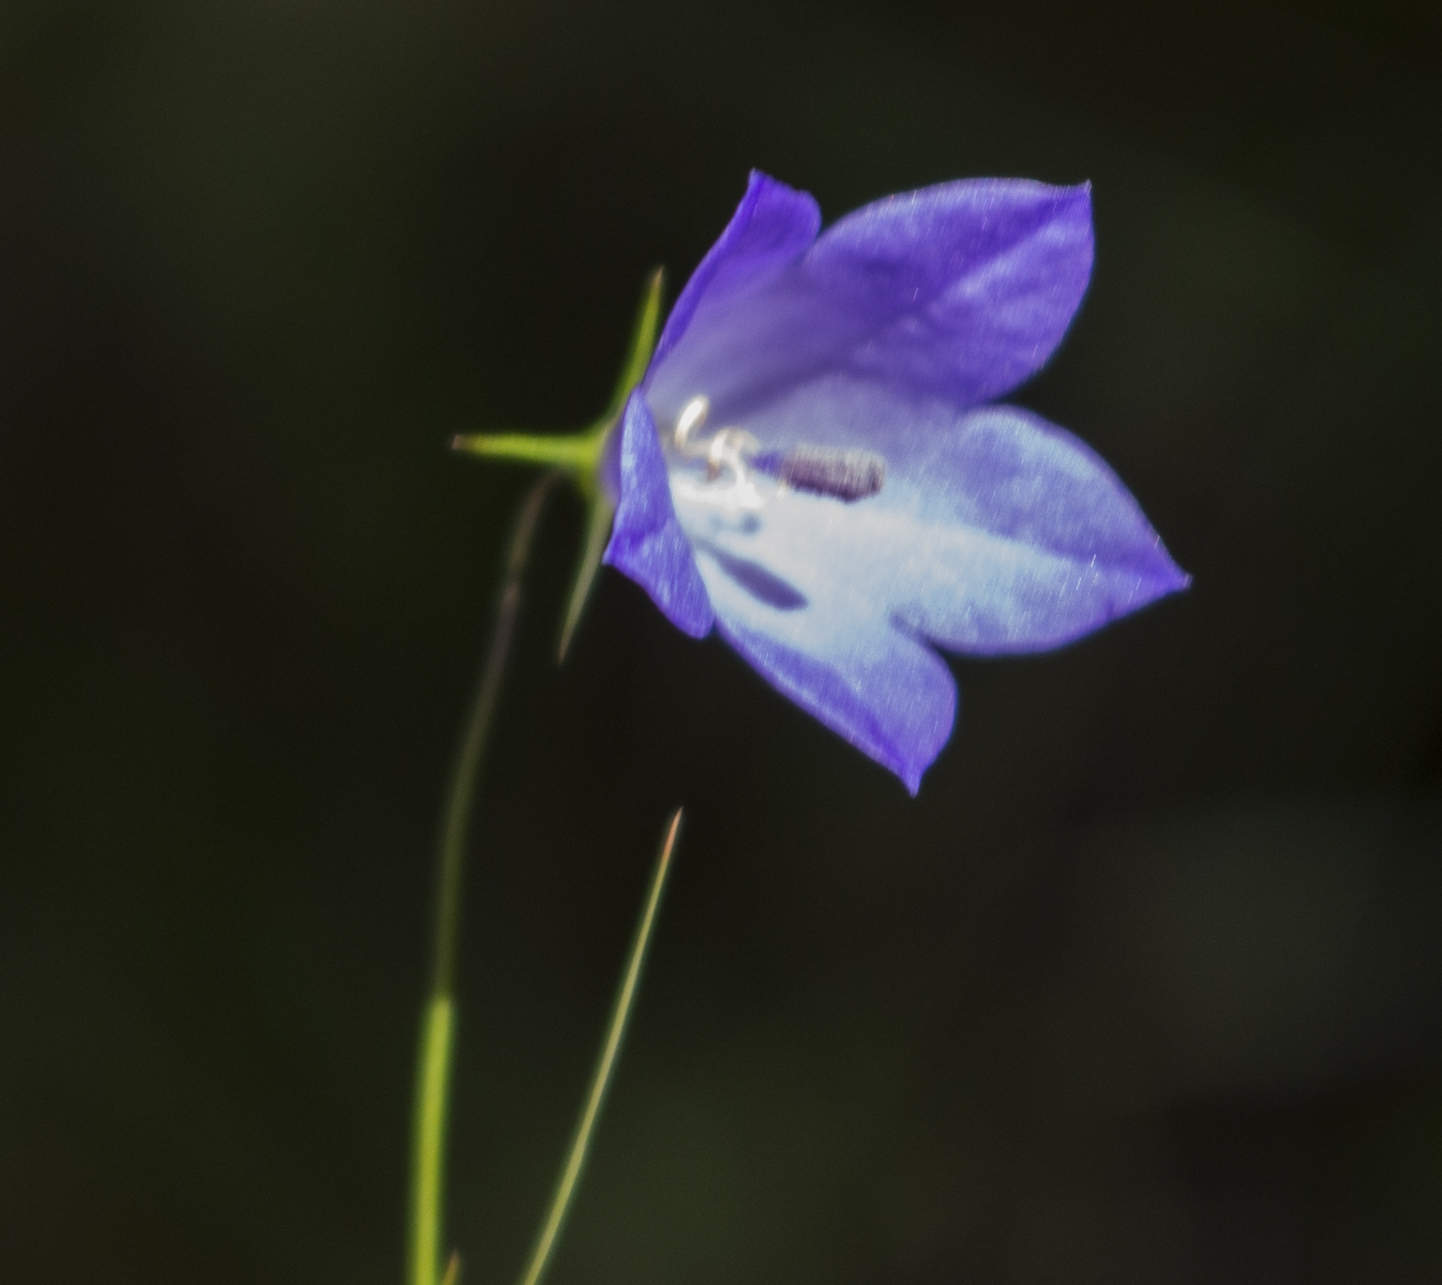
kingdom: Plantae
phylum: Tracheophyta
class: Magnoliopsida
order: Asterales
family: Campanulaceae
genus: Campanula
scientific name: Campanula intercedens
